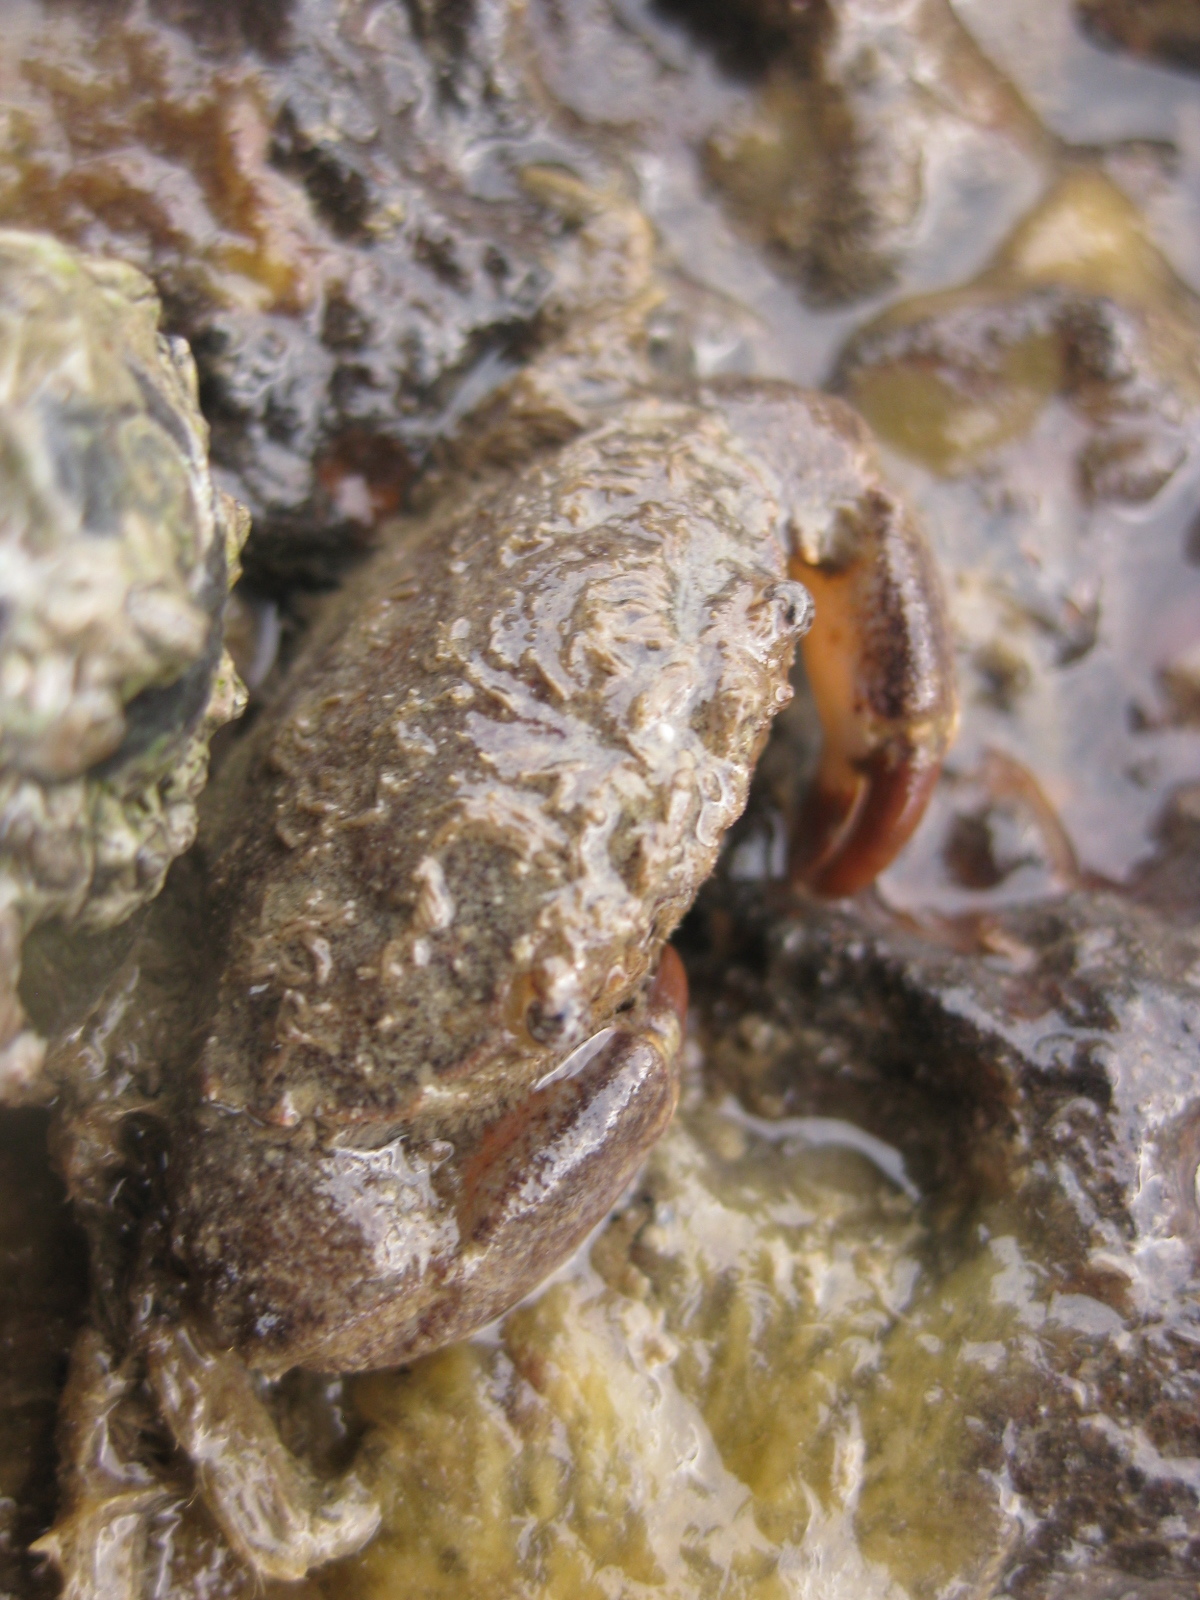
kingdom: Animalia
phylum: Arthropoda
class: Malacostraca
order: Decapoda
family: Pilumnidae
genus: Pilumnopeus
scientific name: Pilumnopeus serratifrons
